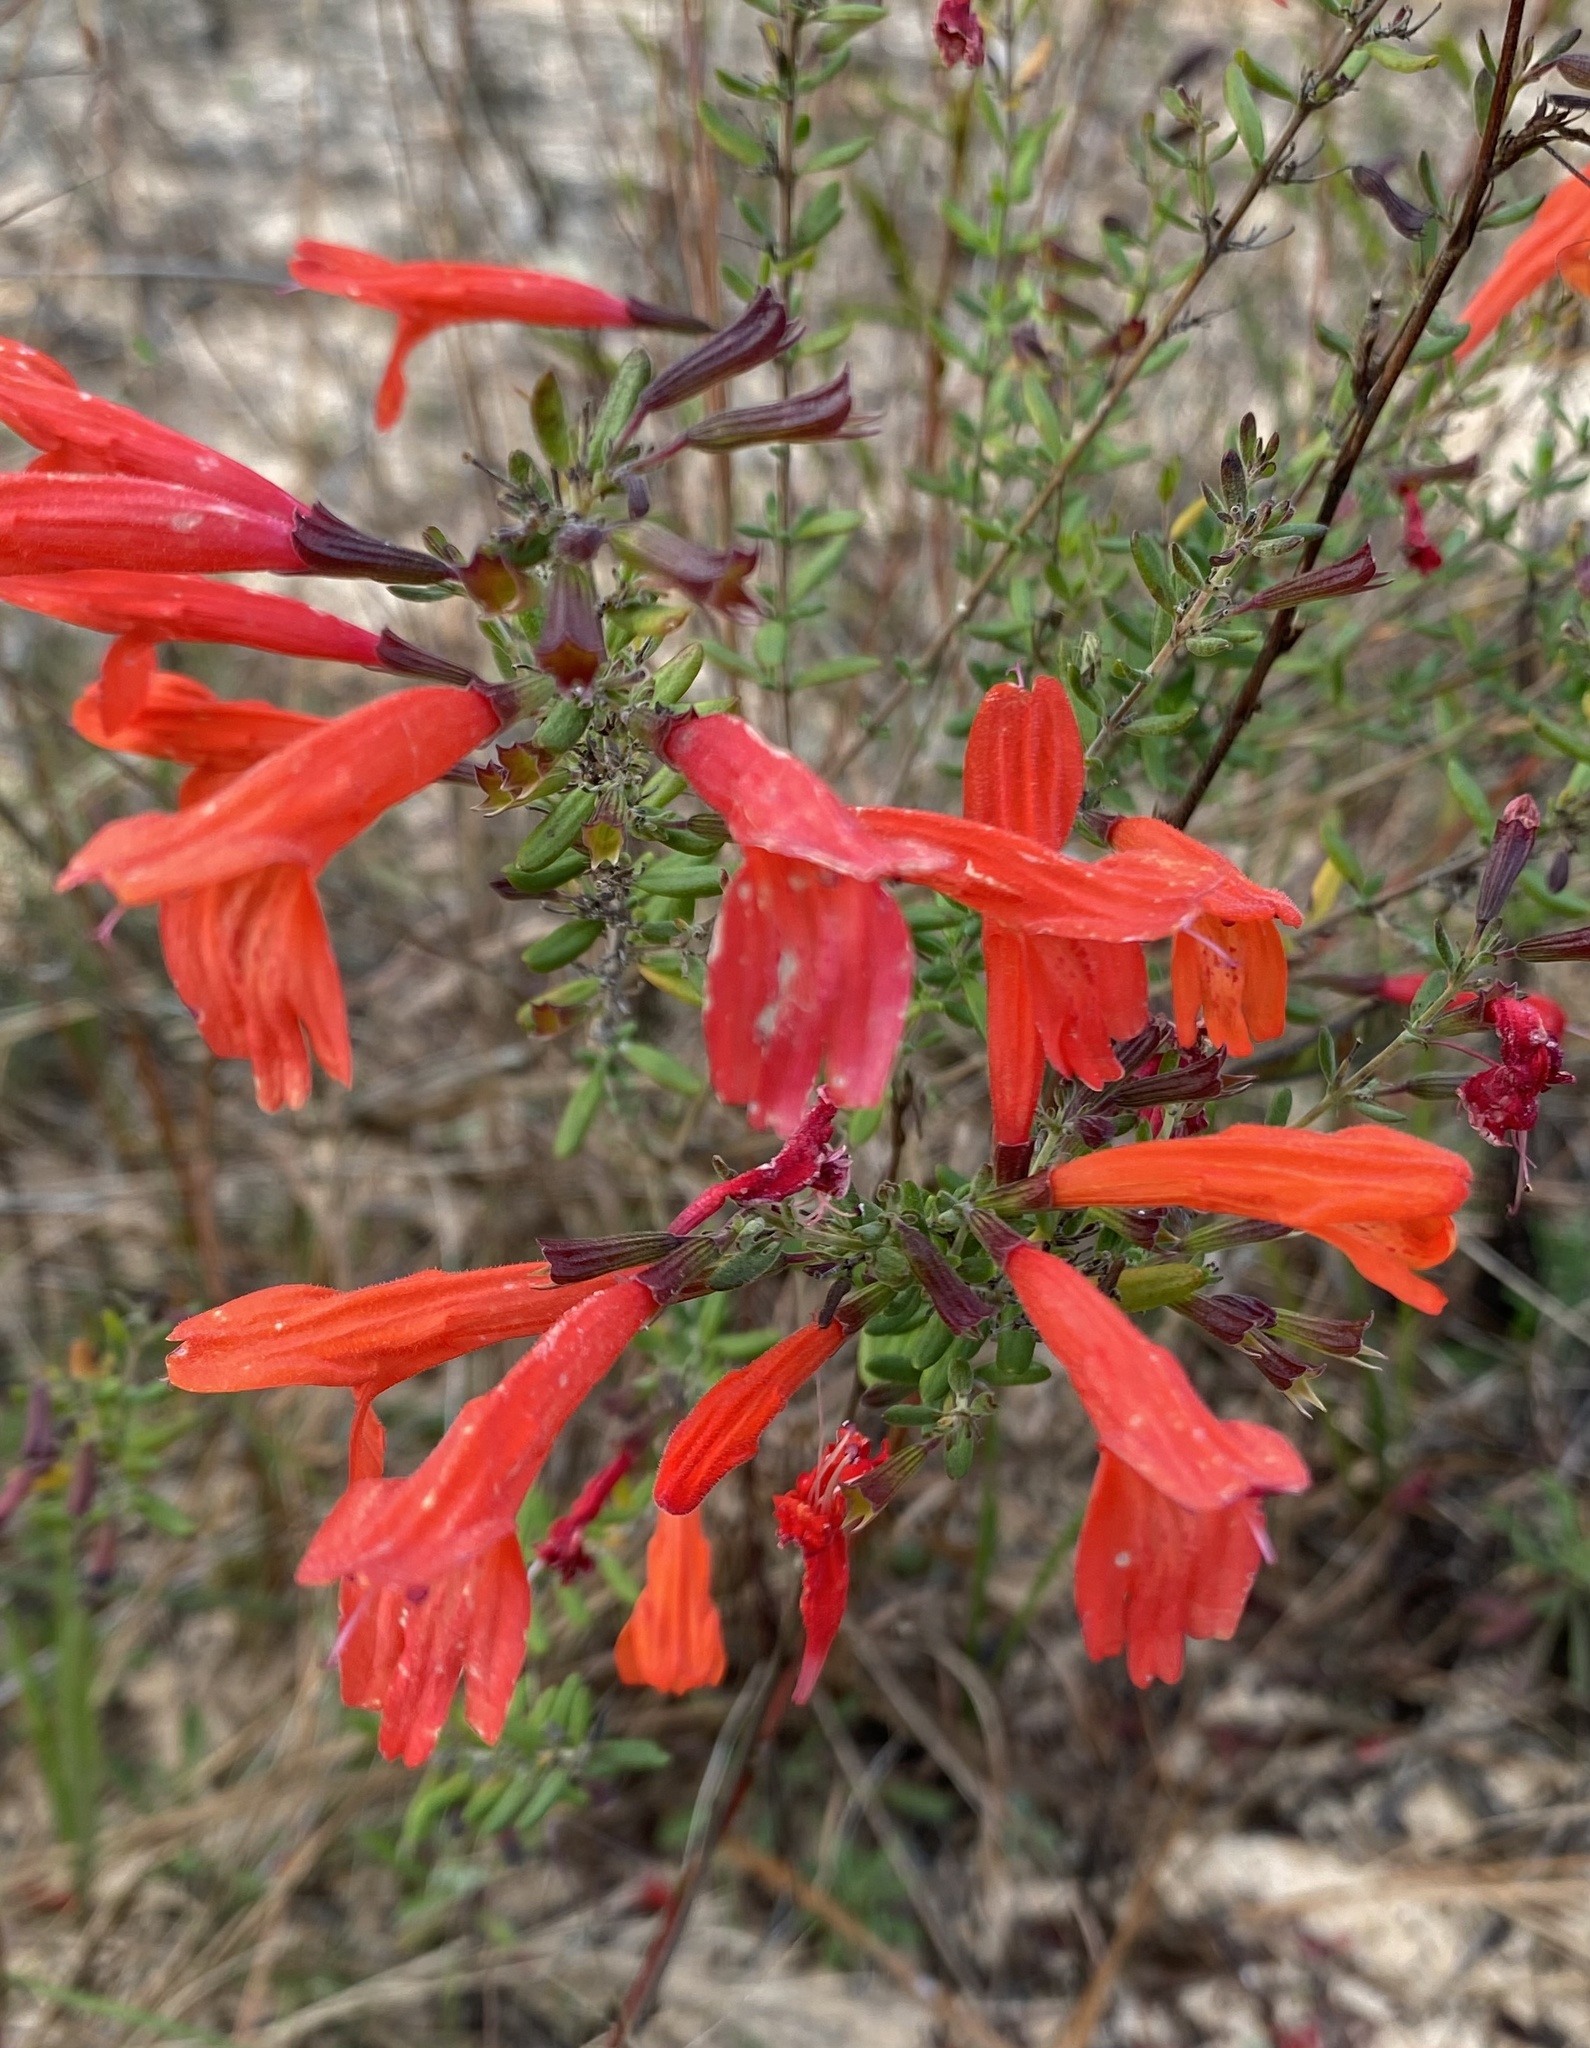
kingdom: Plantae
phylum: Tracheophyta
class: Magnoliopsida
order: Lamiales
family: Lamiaceae
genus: Clinopodium
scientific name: Clinopodium coccineum
